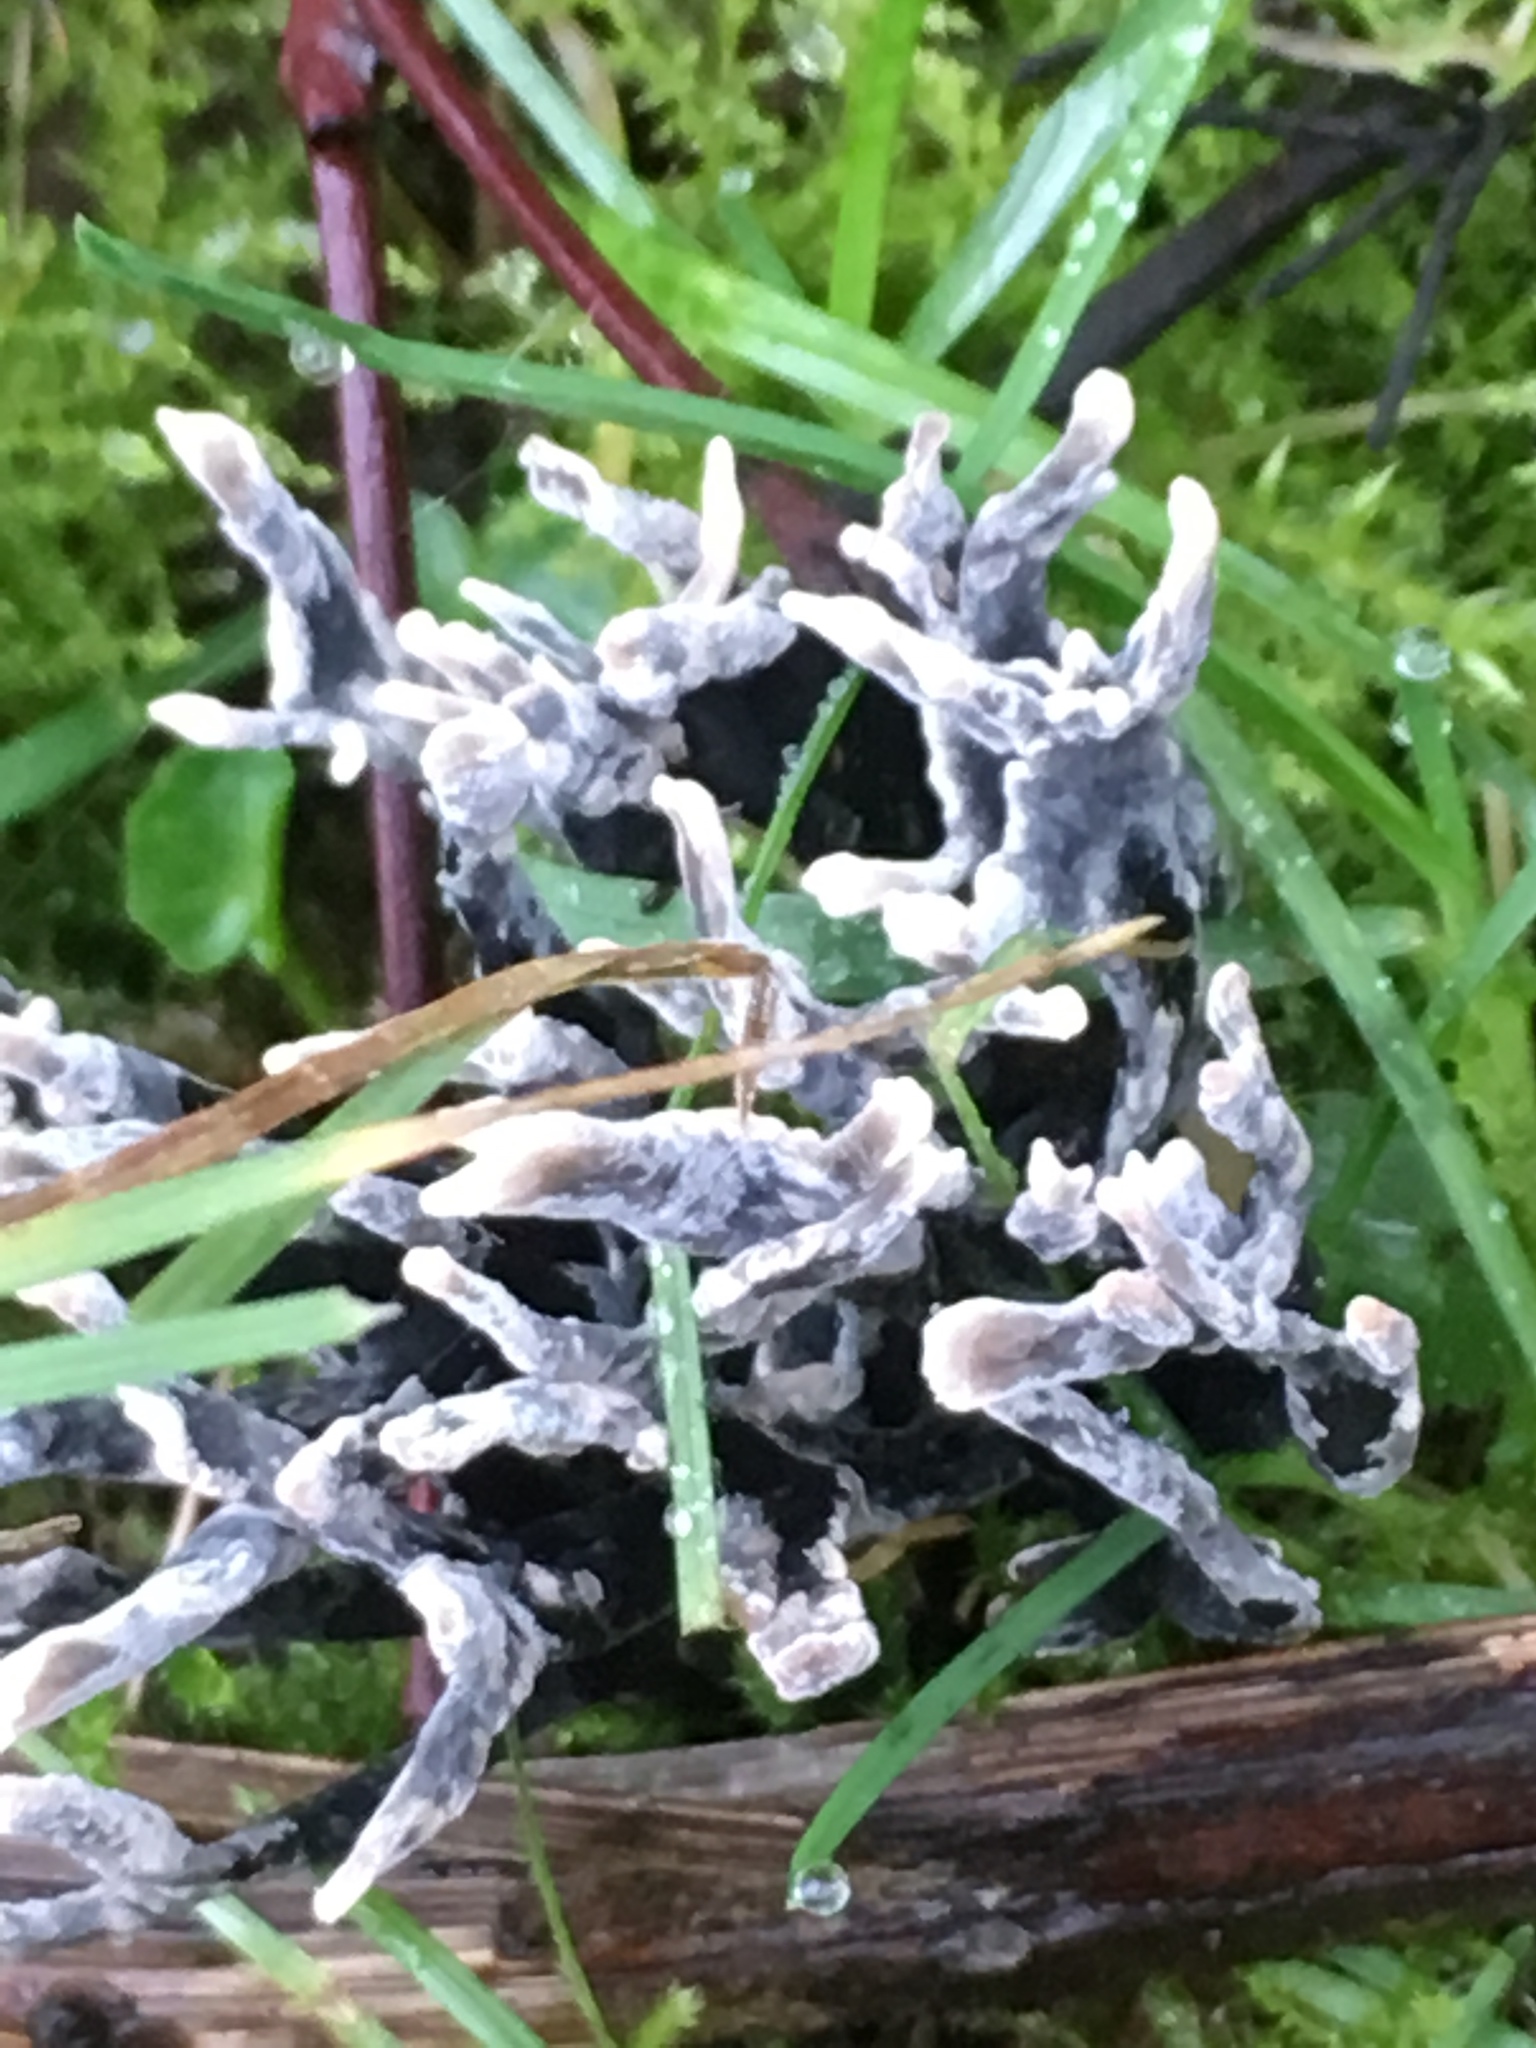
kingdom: Fungi
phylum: Ascomycota
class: Sordariomycetes
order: Xylariales
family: Xylariaceae
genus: Xylaria
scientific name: Xylaria hypoxylon
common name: Candle-snuff fungus
